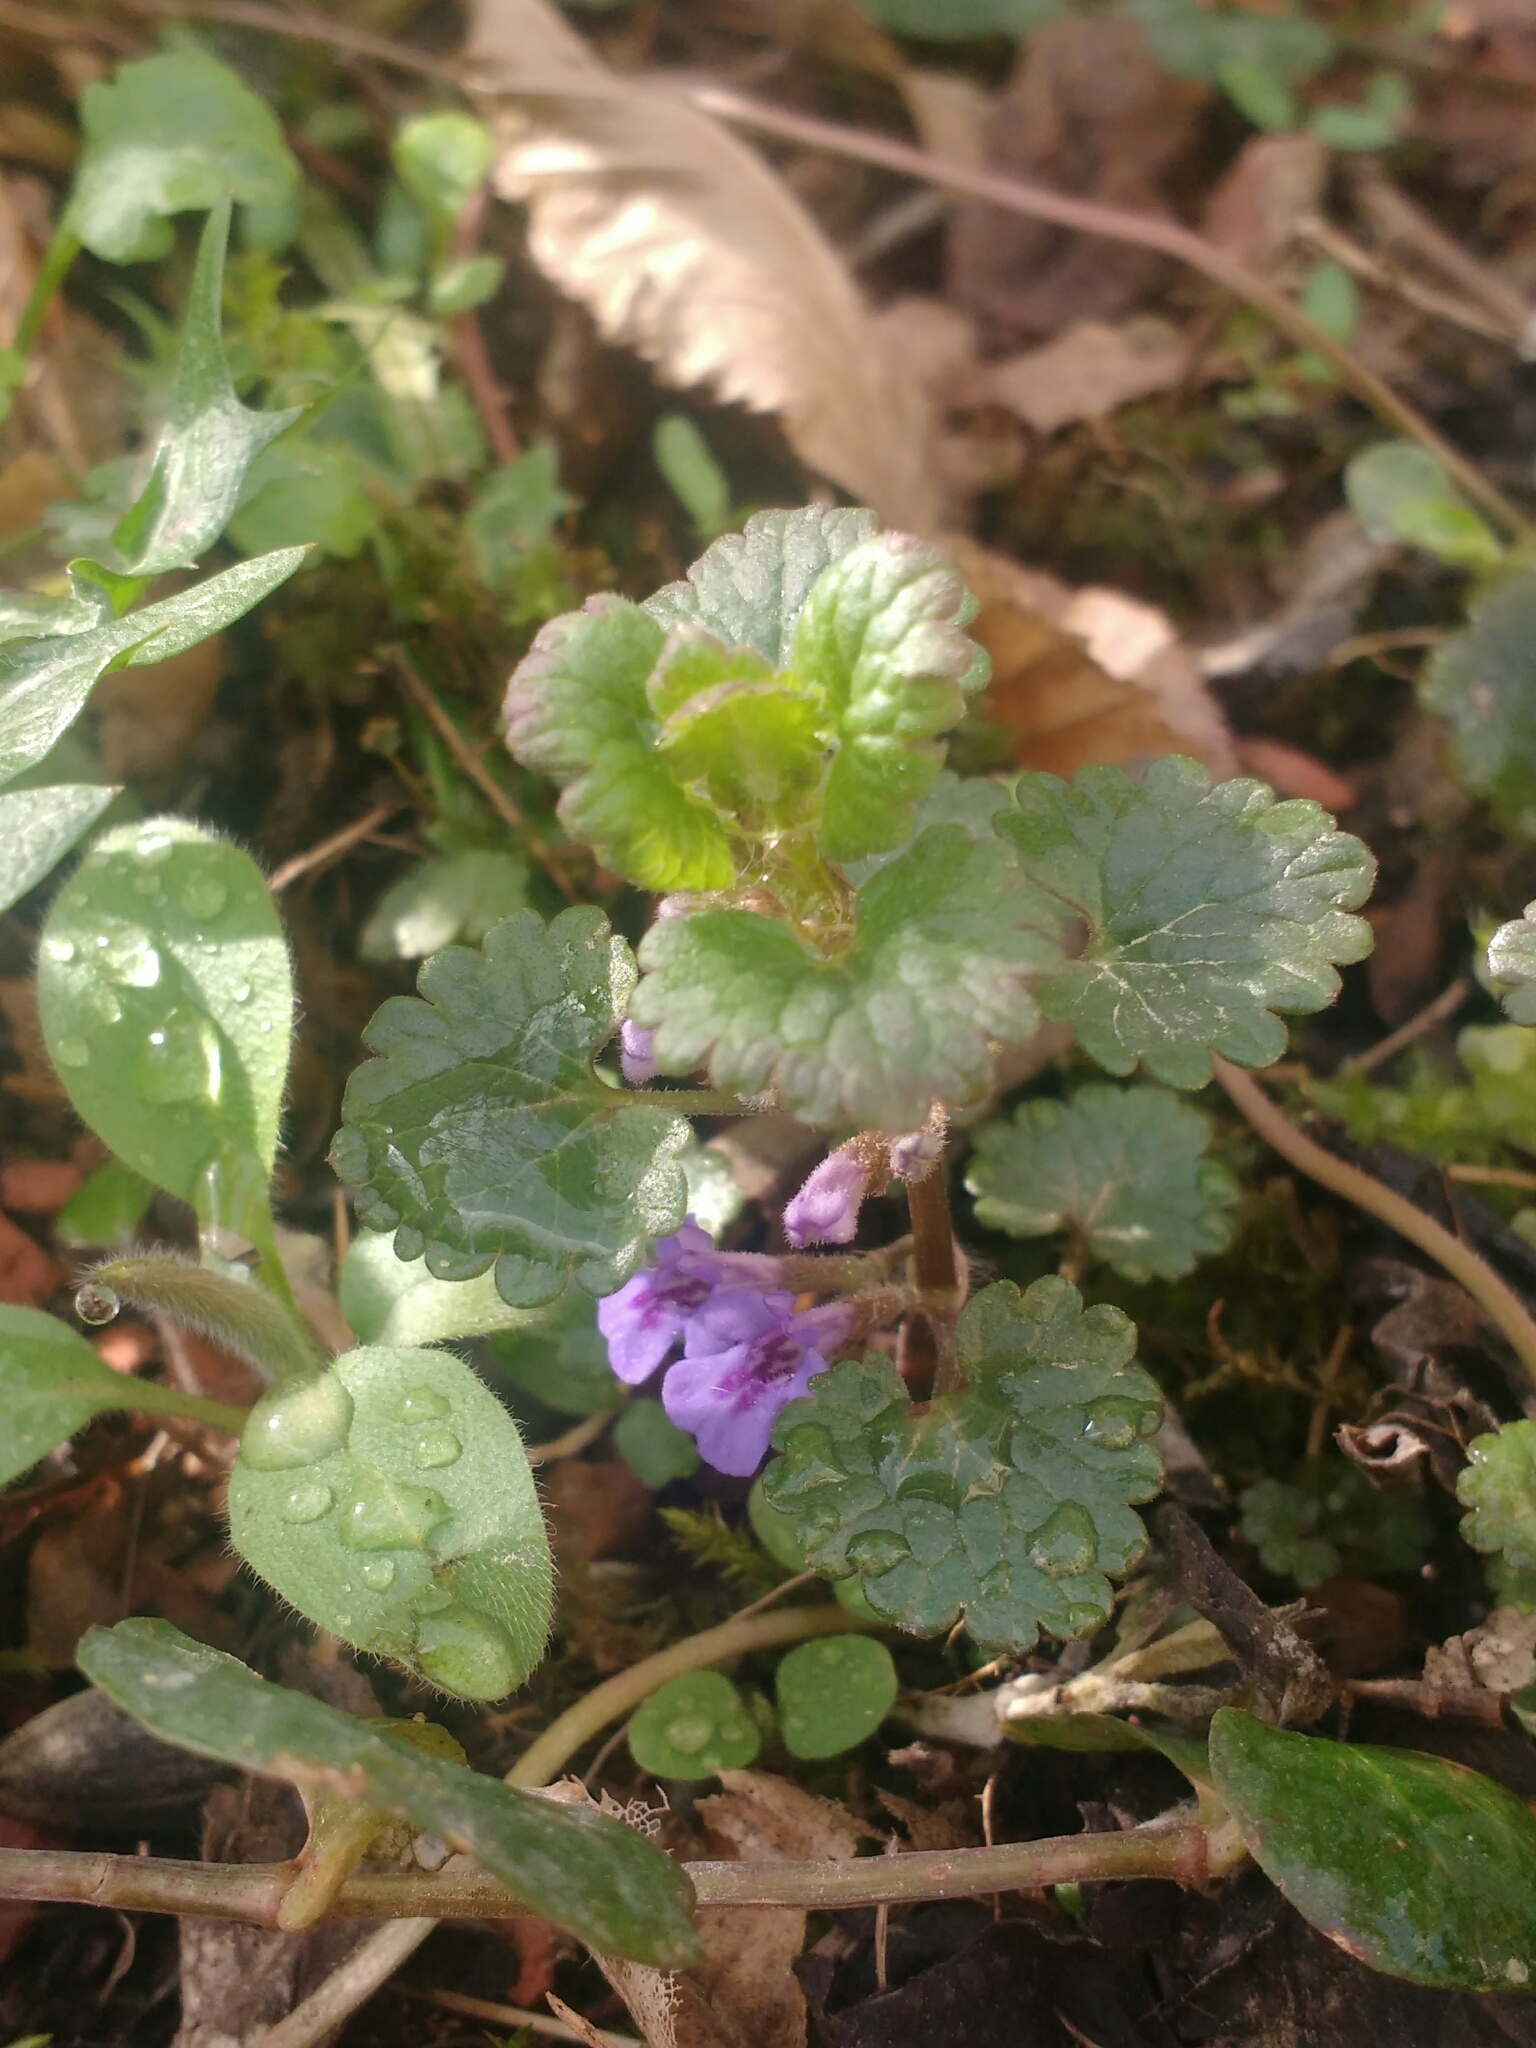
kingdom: Plantae
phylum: Tracheophyta
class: Magnoliopsida
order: Lamiales
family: Lamiaceae
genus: Glechoma
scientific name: Glechoma hederacea
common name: Ground ivy
